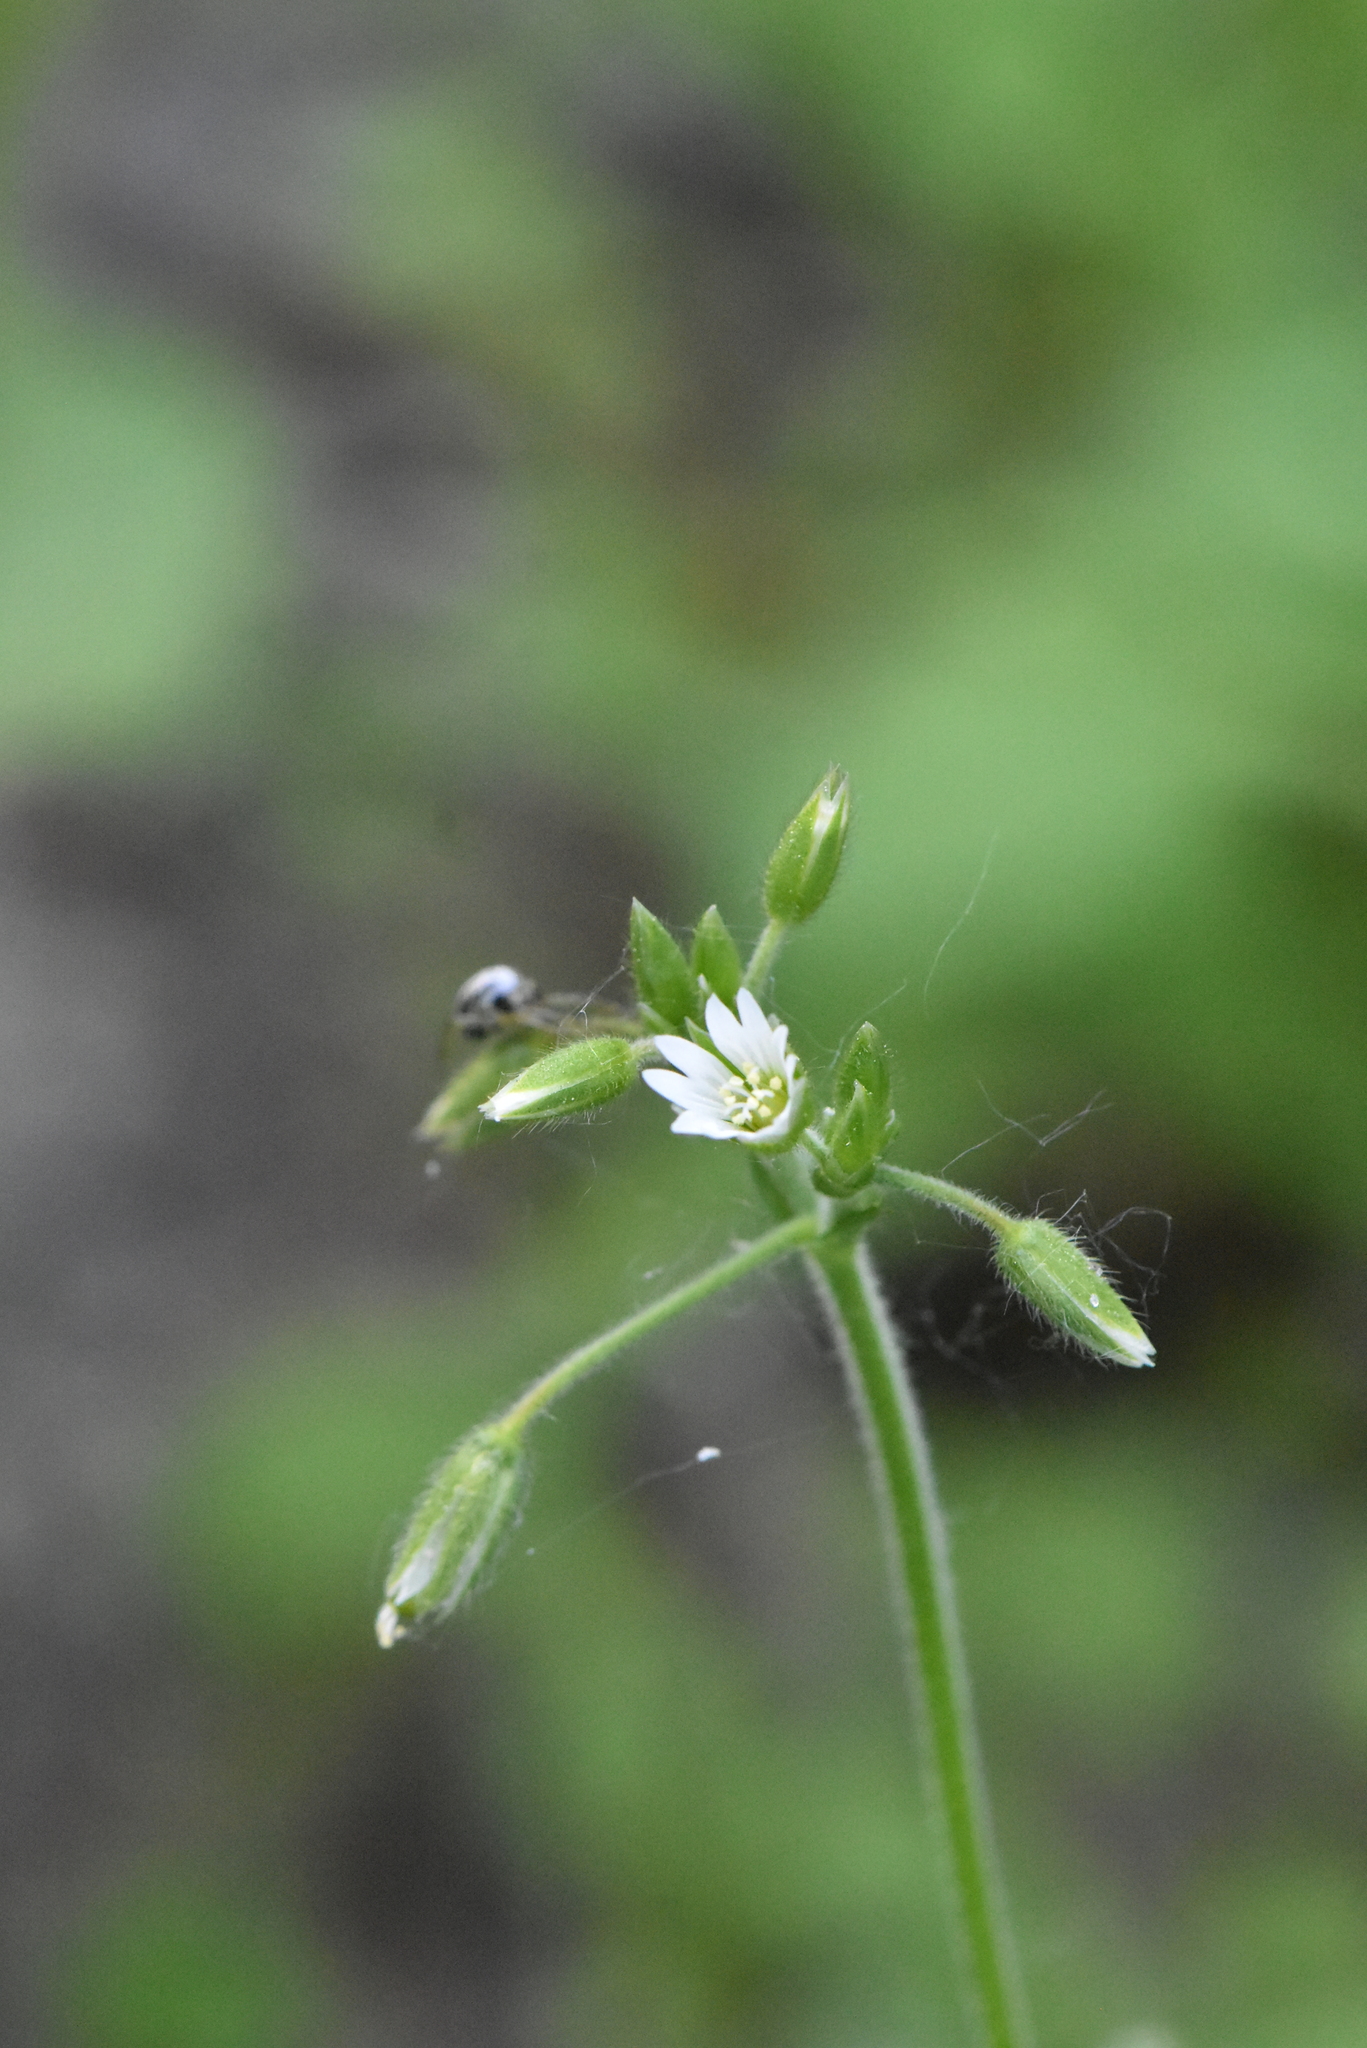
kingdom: Plantae
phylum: Tracheophyta
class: Magnoliopsida
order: Caryophyllales
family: Caryophyllaceae
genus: Cerastium
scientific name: Cerastium holosteoides
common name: Big chickweed
